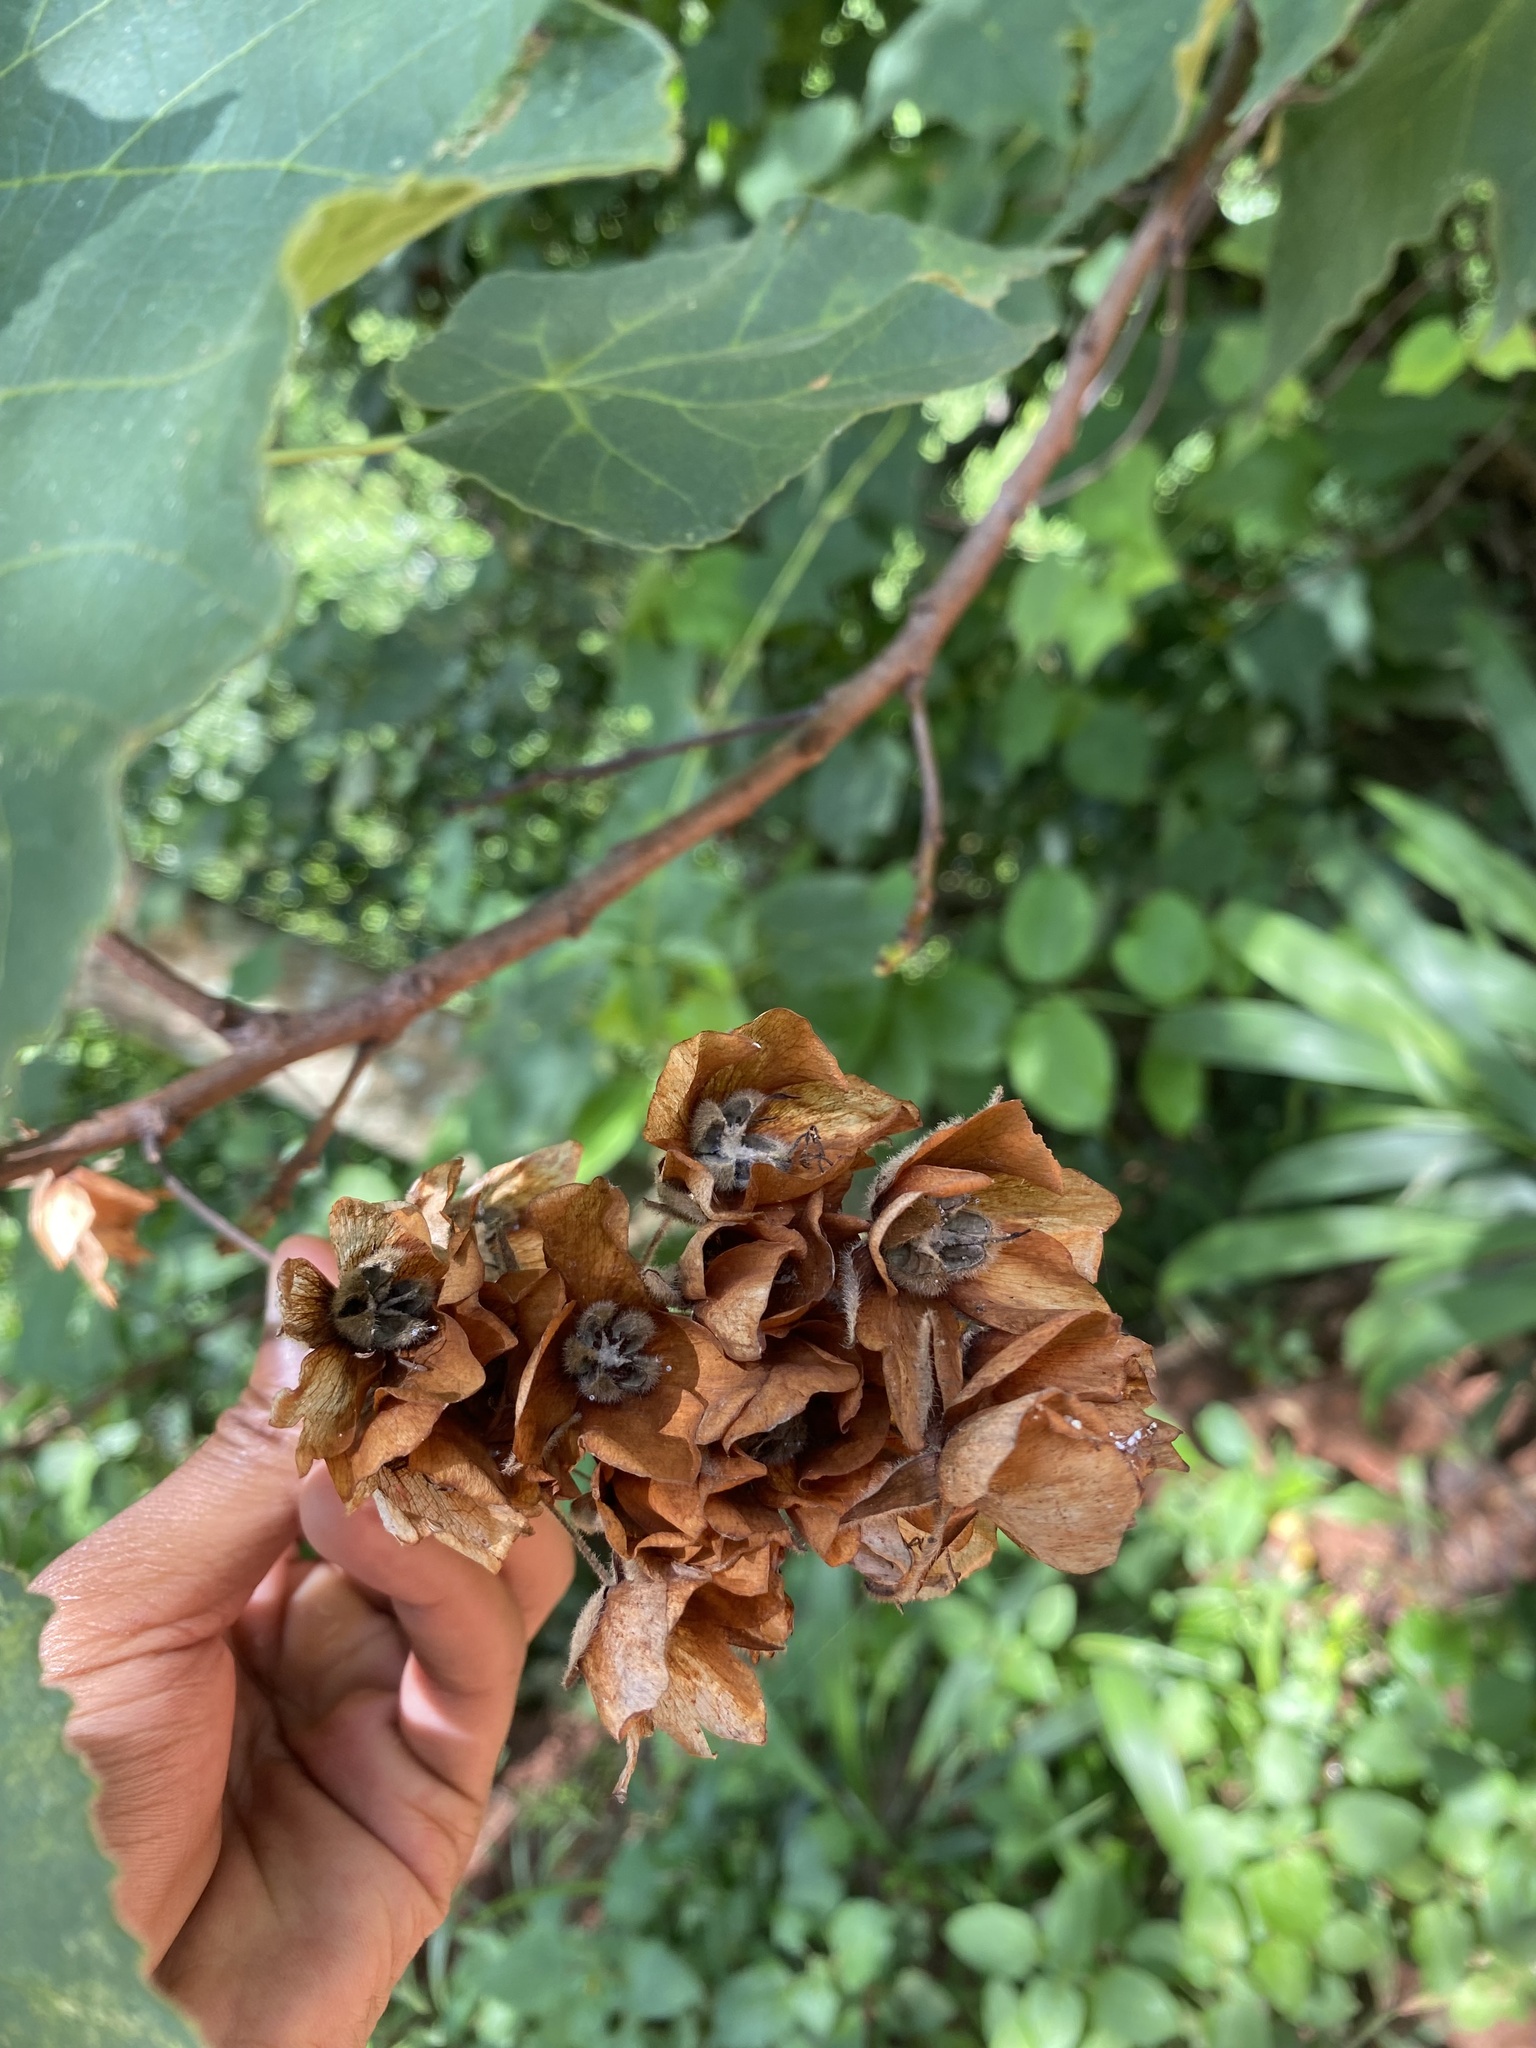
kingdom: Plantae
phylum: Tracheophyta
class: Magnoliopsida
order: Malvales
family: Malvaceae
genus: Dombeya
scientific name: Dombeya burgessiae
